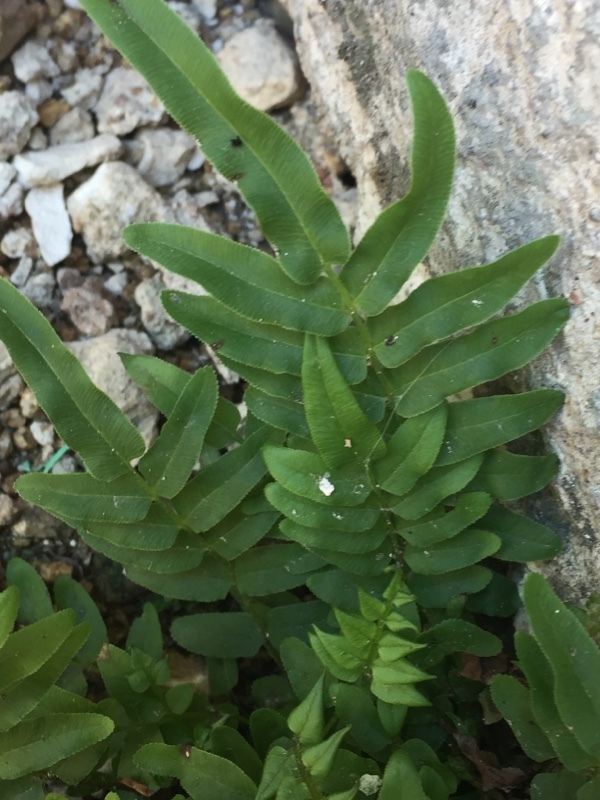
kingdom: Plantae
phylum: Tracheophyta
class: Polypodiopsida
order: Polypodiales
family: Pteridaceae
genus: Pteris
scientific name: Pteris vittata
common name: Ladder brake
